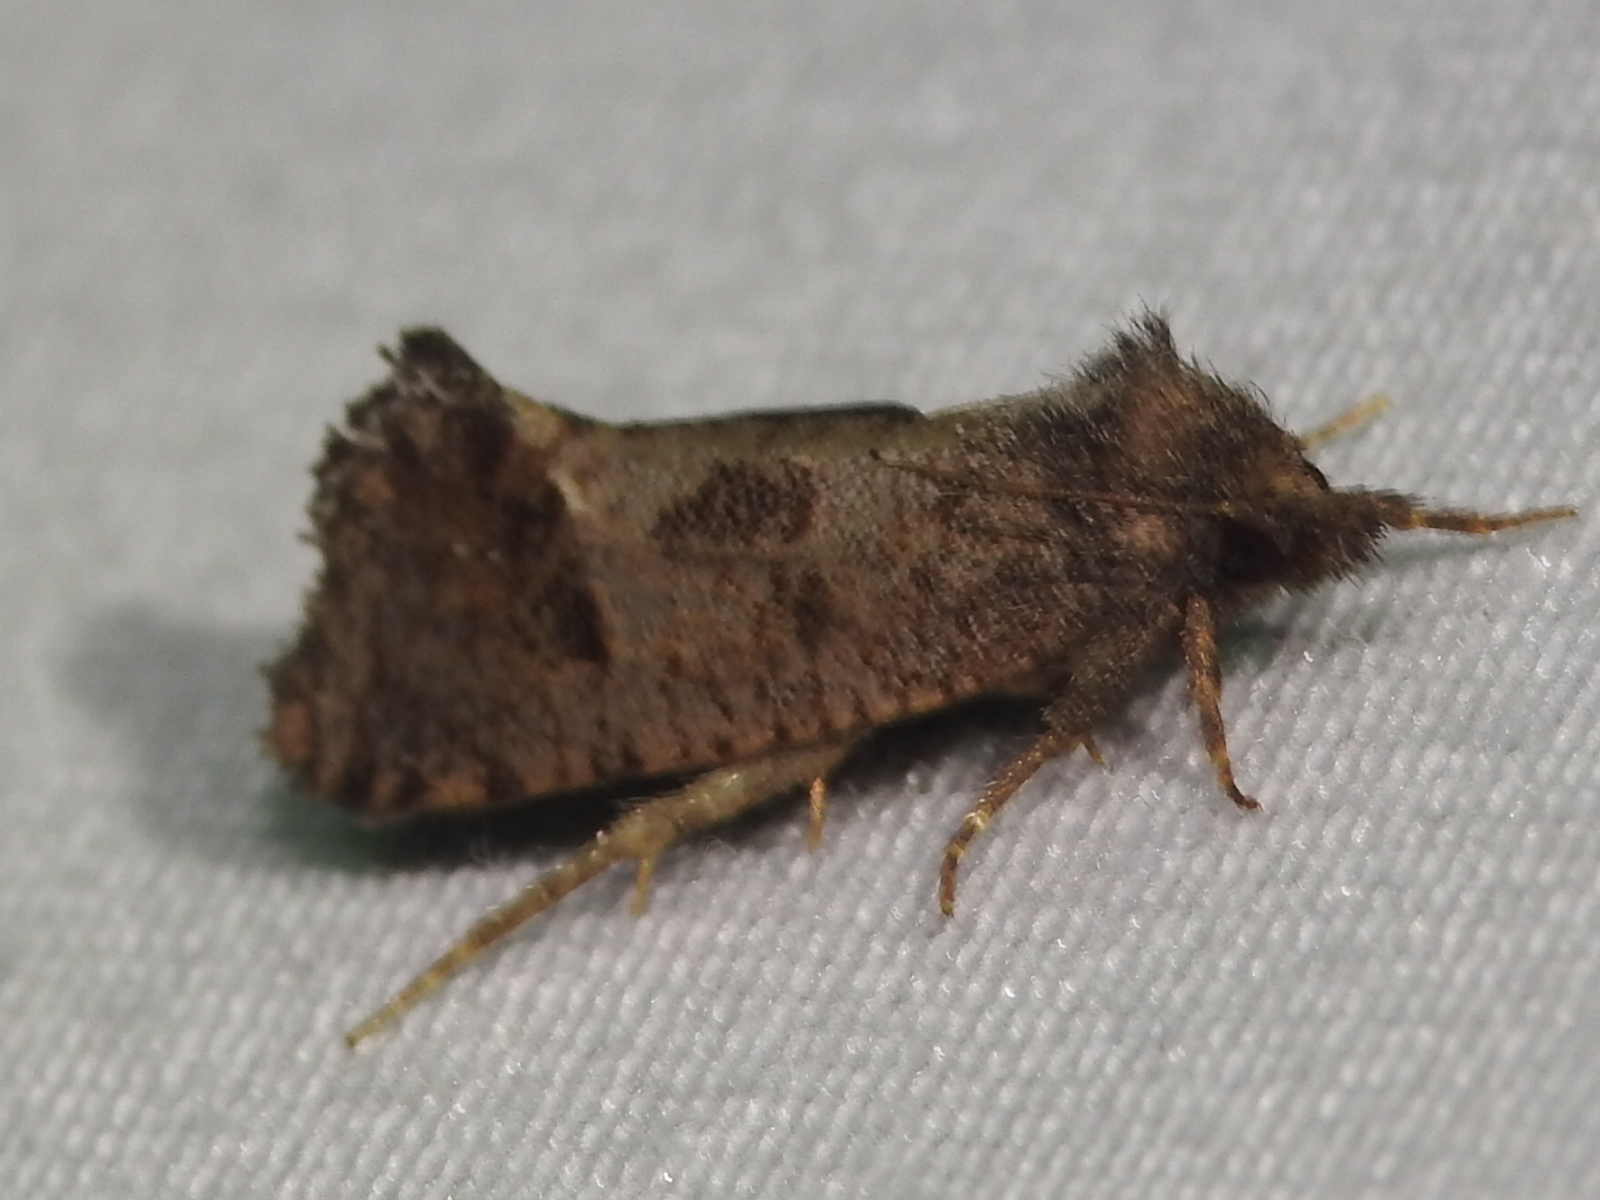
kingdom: Animalia
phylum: Arthropoda
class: Insecta
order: Lepidoptera
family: Tineidae
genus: Acrolophus
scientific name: Acrolophus texanella
